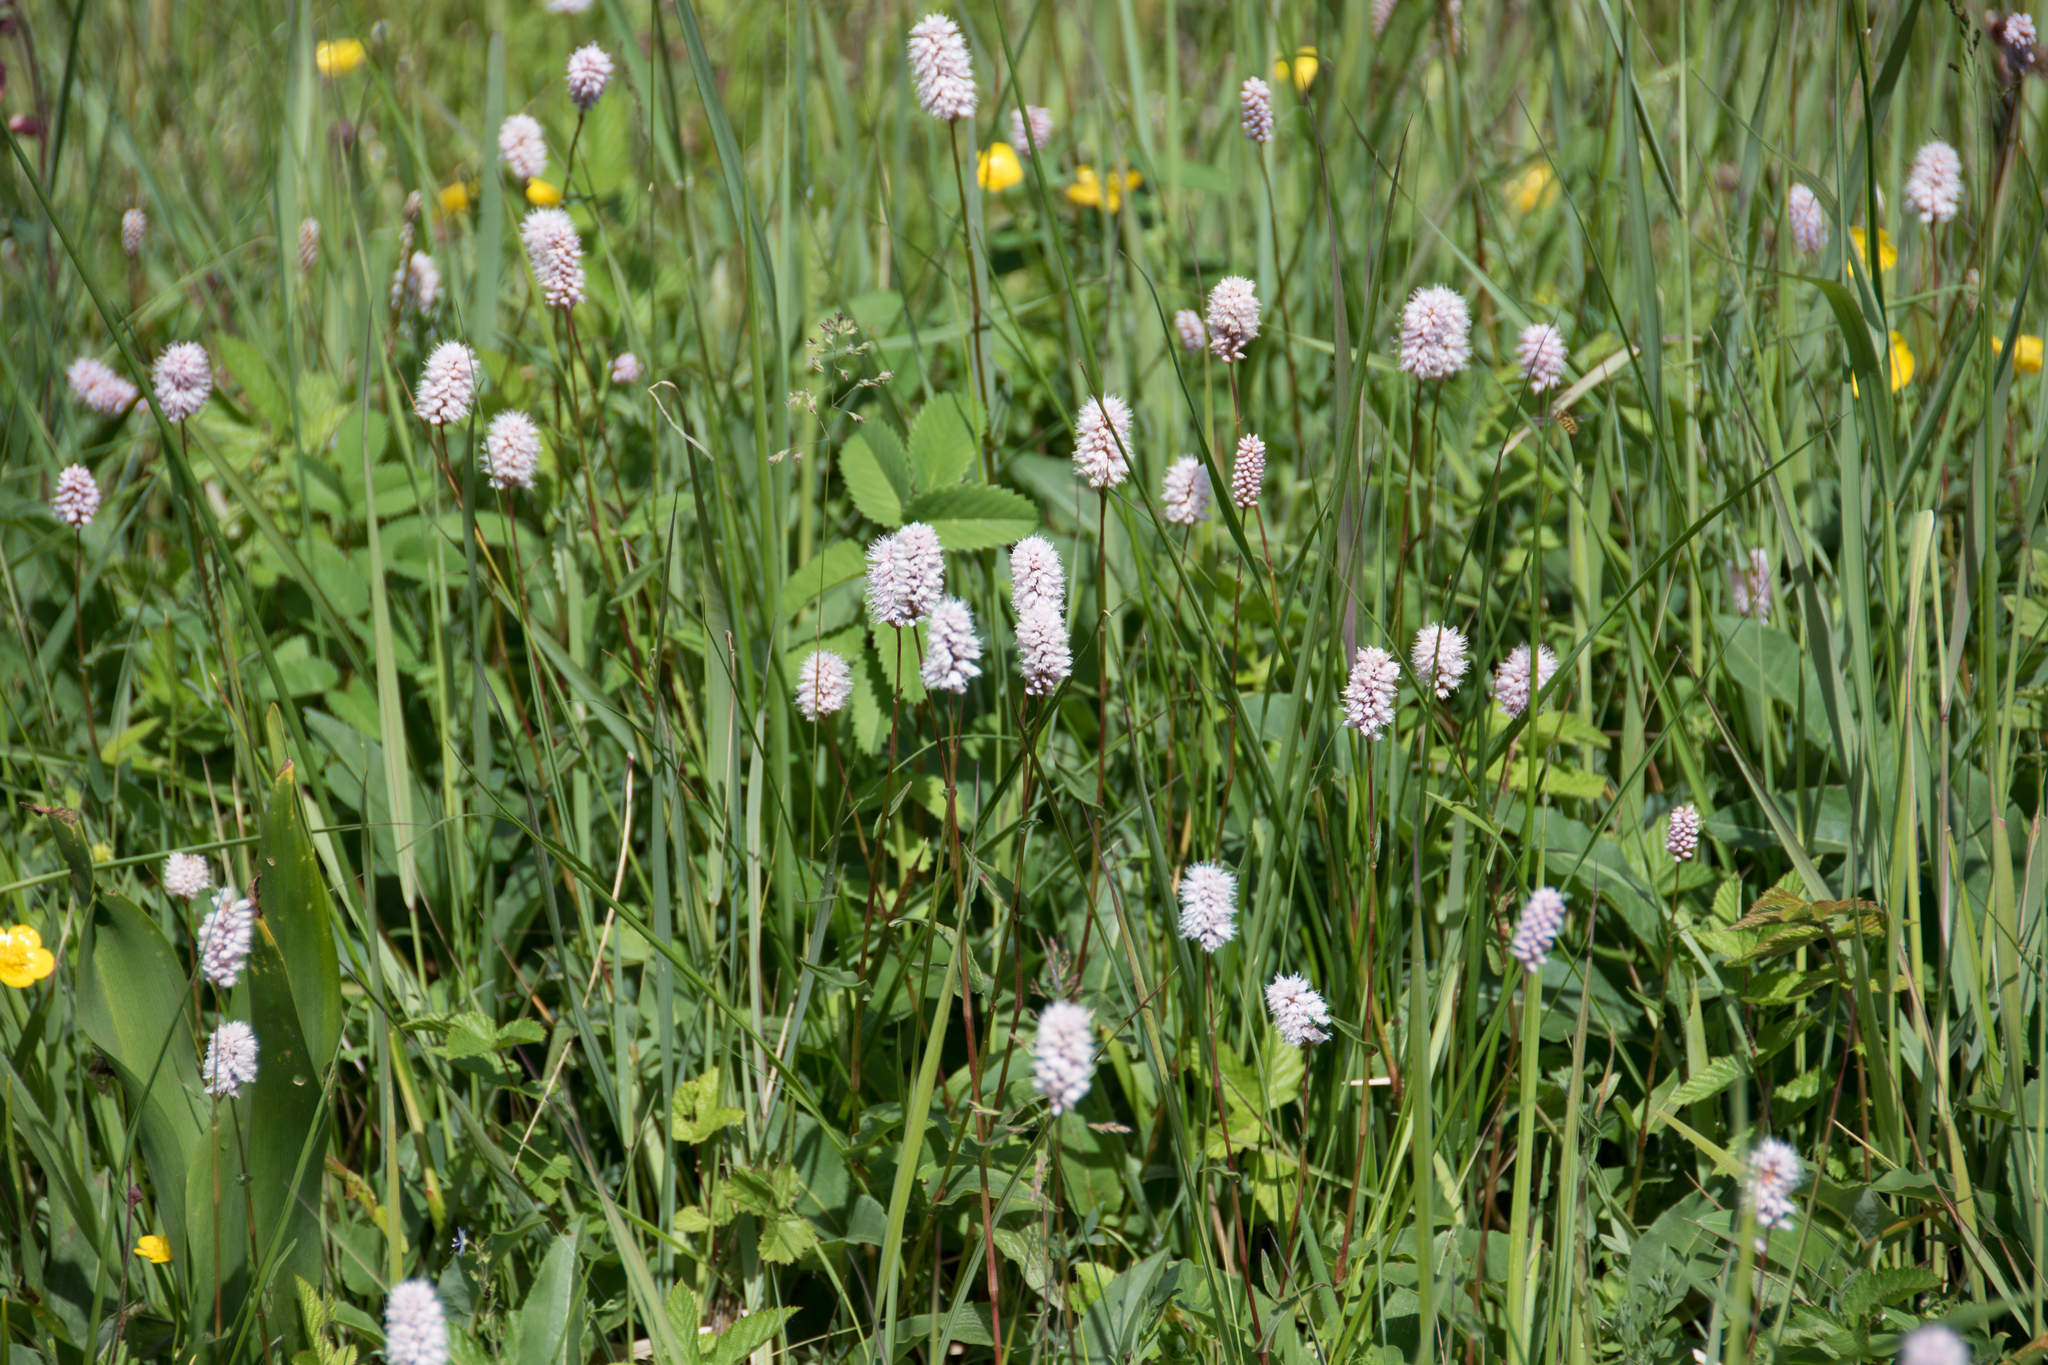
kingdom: Plantae
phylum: Tracheophyta
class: Magnoliopsida
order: Caryophyllales
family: Polygonaceae
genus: Bistorta
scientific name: Bistorta officinalis
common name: Common bistort
